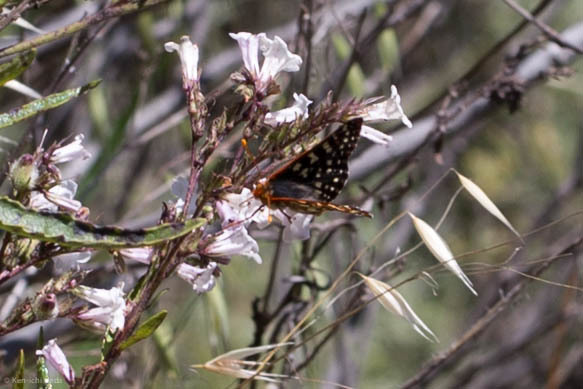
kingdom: Animalia
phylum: Arthropoda
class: Insecta
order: Lepidoptera
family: Nymphalidae
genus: Occidryas
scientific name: Occidryas chalcedona
